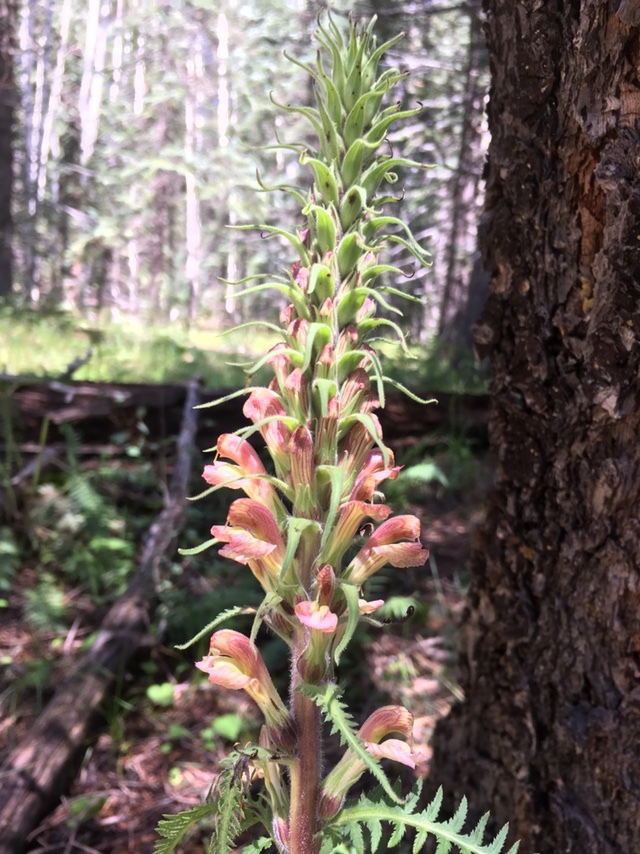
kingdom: Plantae
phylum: Tracheophyta
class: Magnoliopsida
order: Lamiales
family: Orobanchaceae
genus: Pedicularis
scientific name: Pedicularis procera
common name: Gray's lousewort
